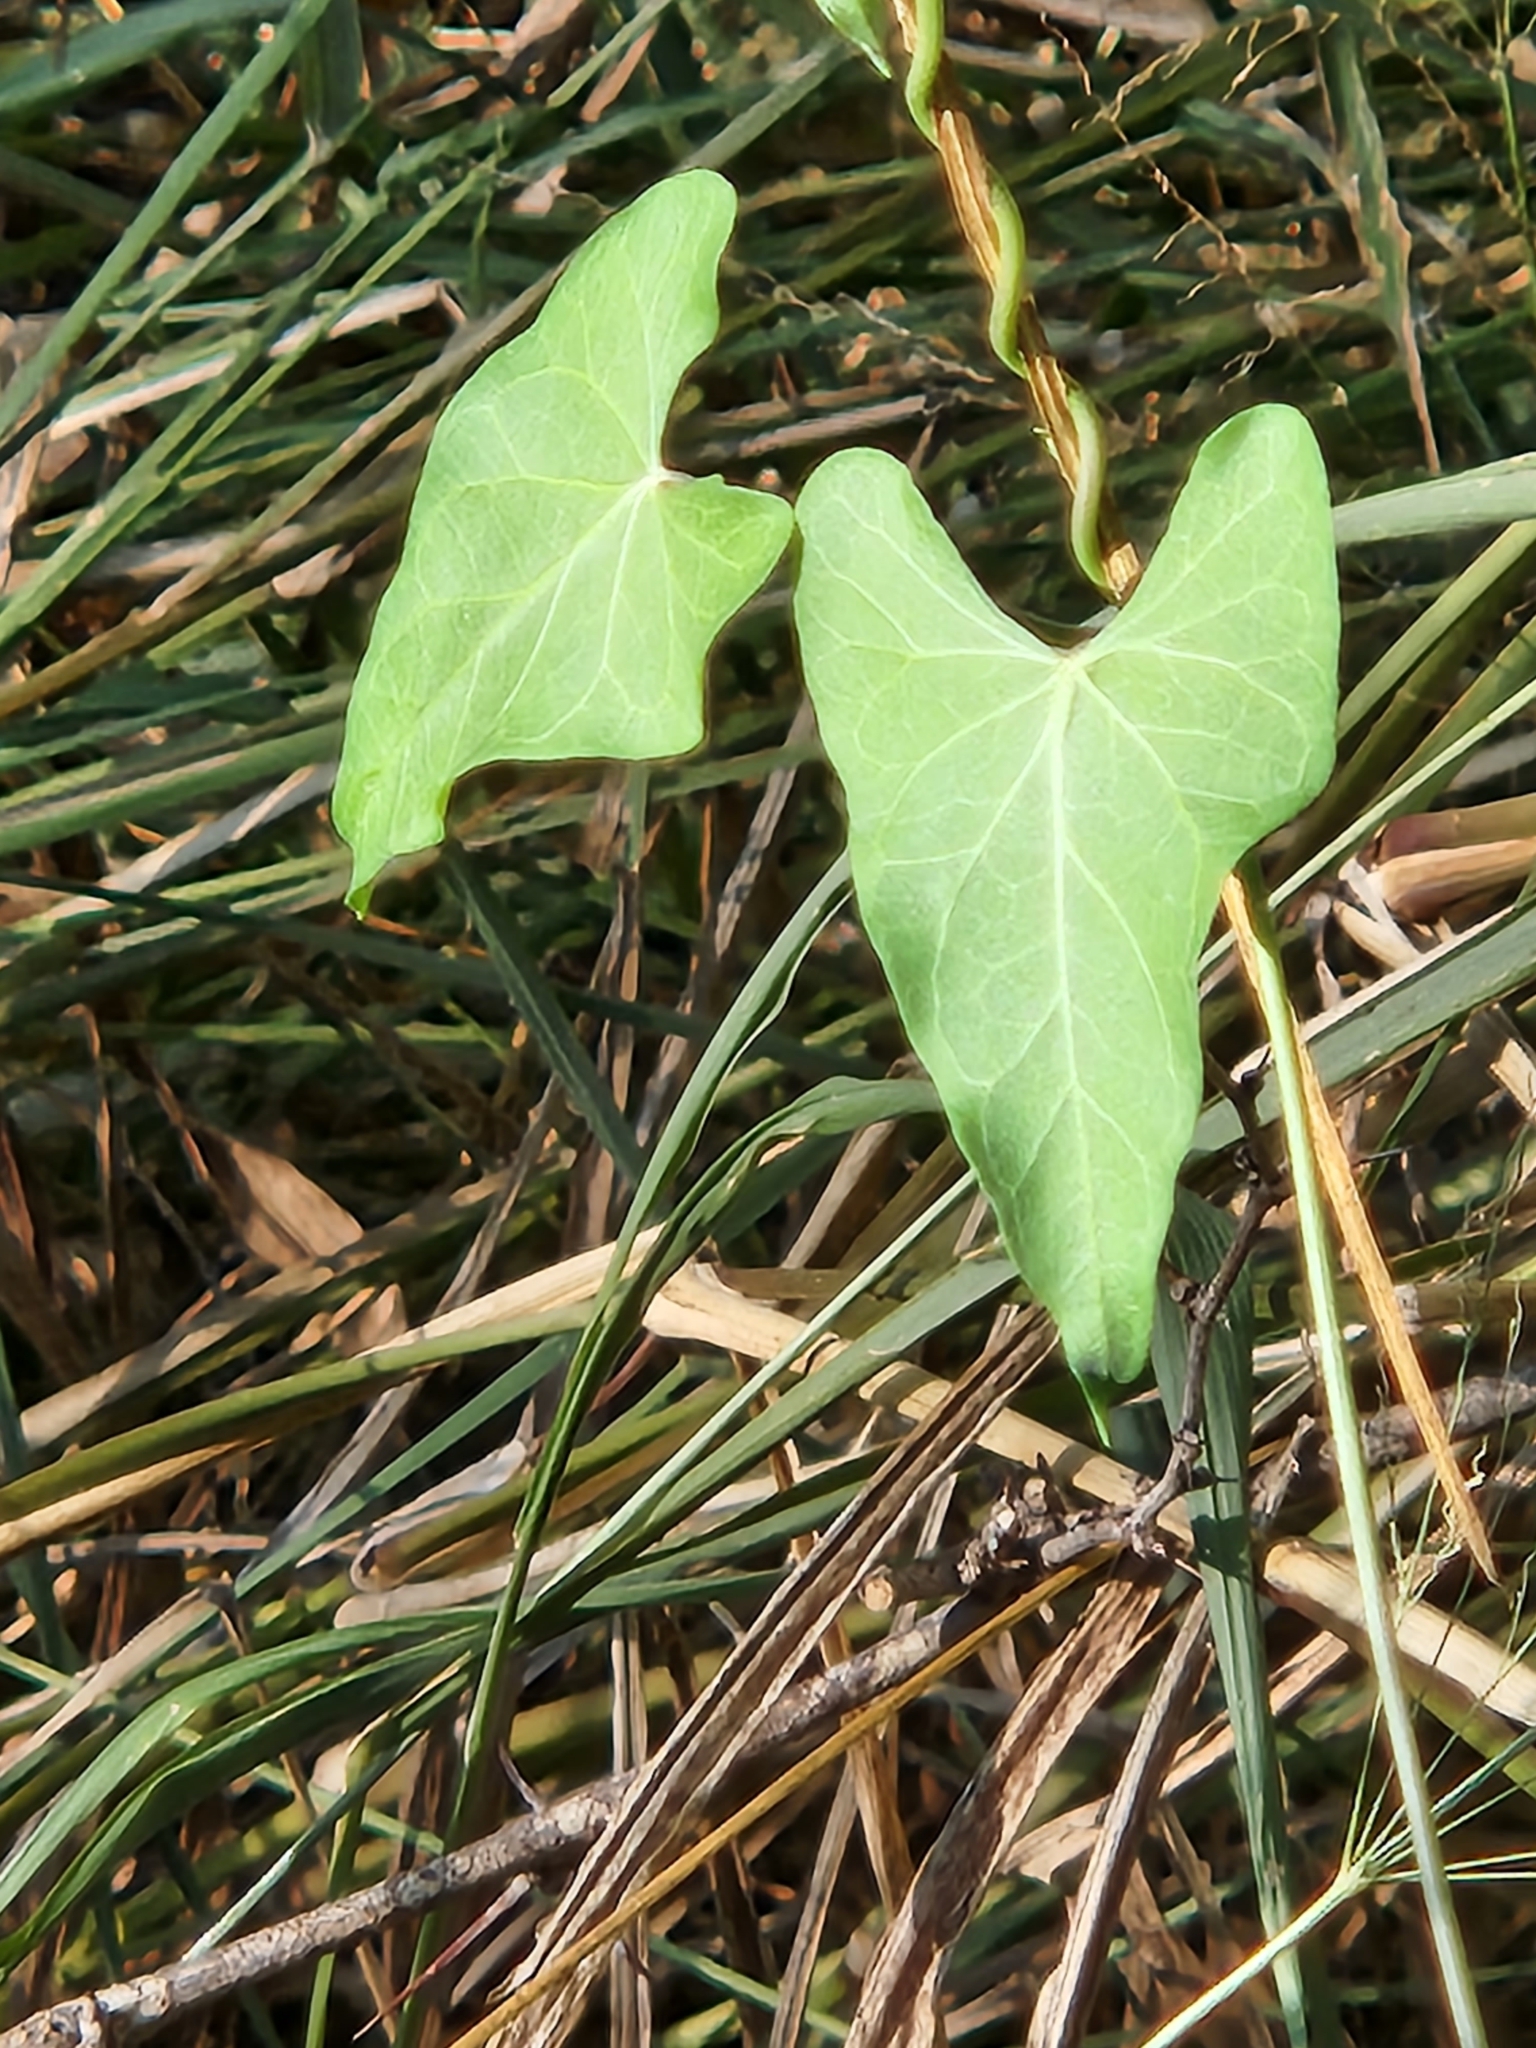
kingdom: Plantae
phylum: Tracheophyta
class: Magnoliopsida
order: Gentianales
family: Apocynaceae
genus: Funastrum
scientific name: Funastrum cynanchoides
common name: Climbing-milkweed
